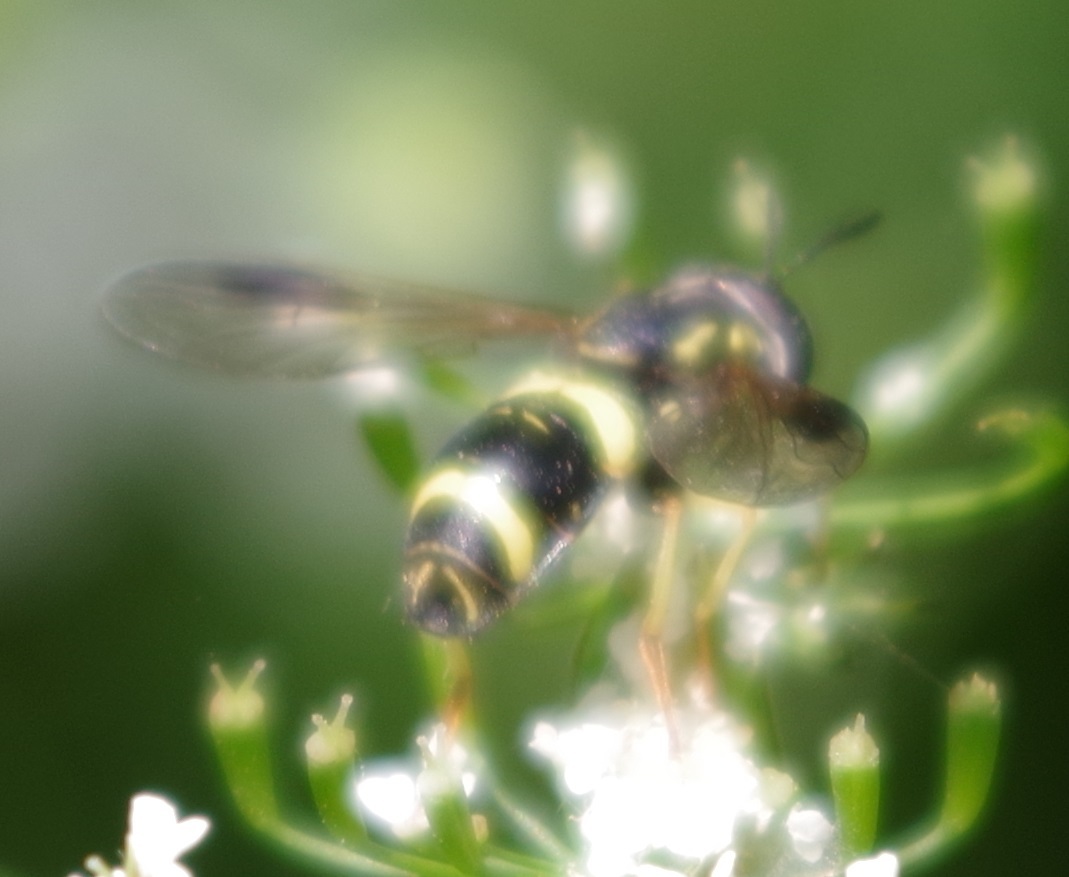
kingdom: Animalia
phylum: Arthropoda
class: Insecta
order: Diptera
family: Syrphidae
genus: Chrysotoxum
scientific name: Chrysotoxum bicincta
